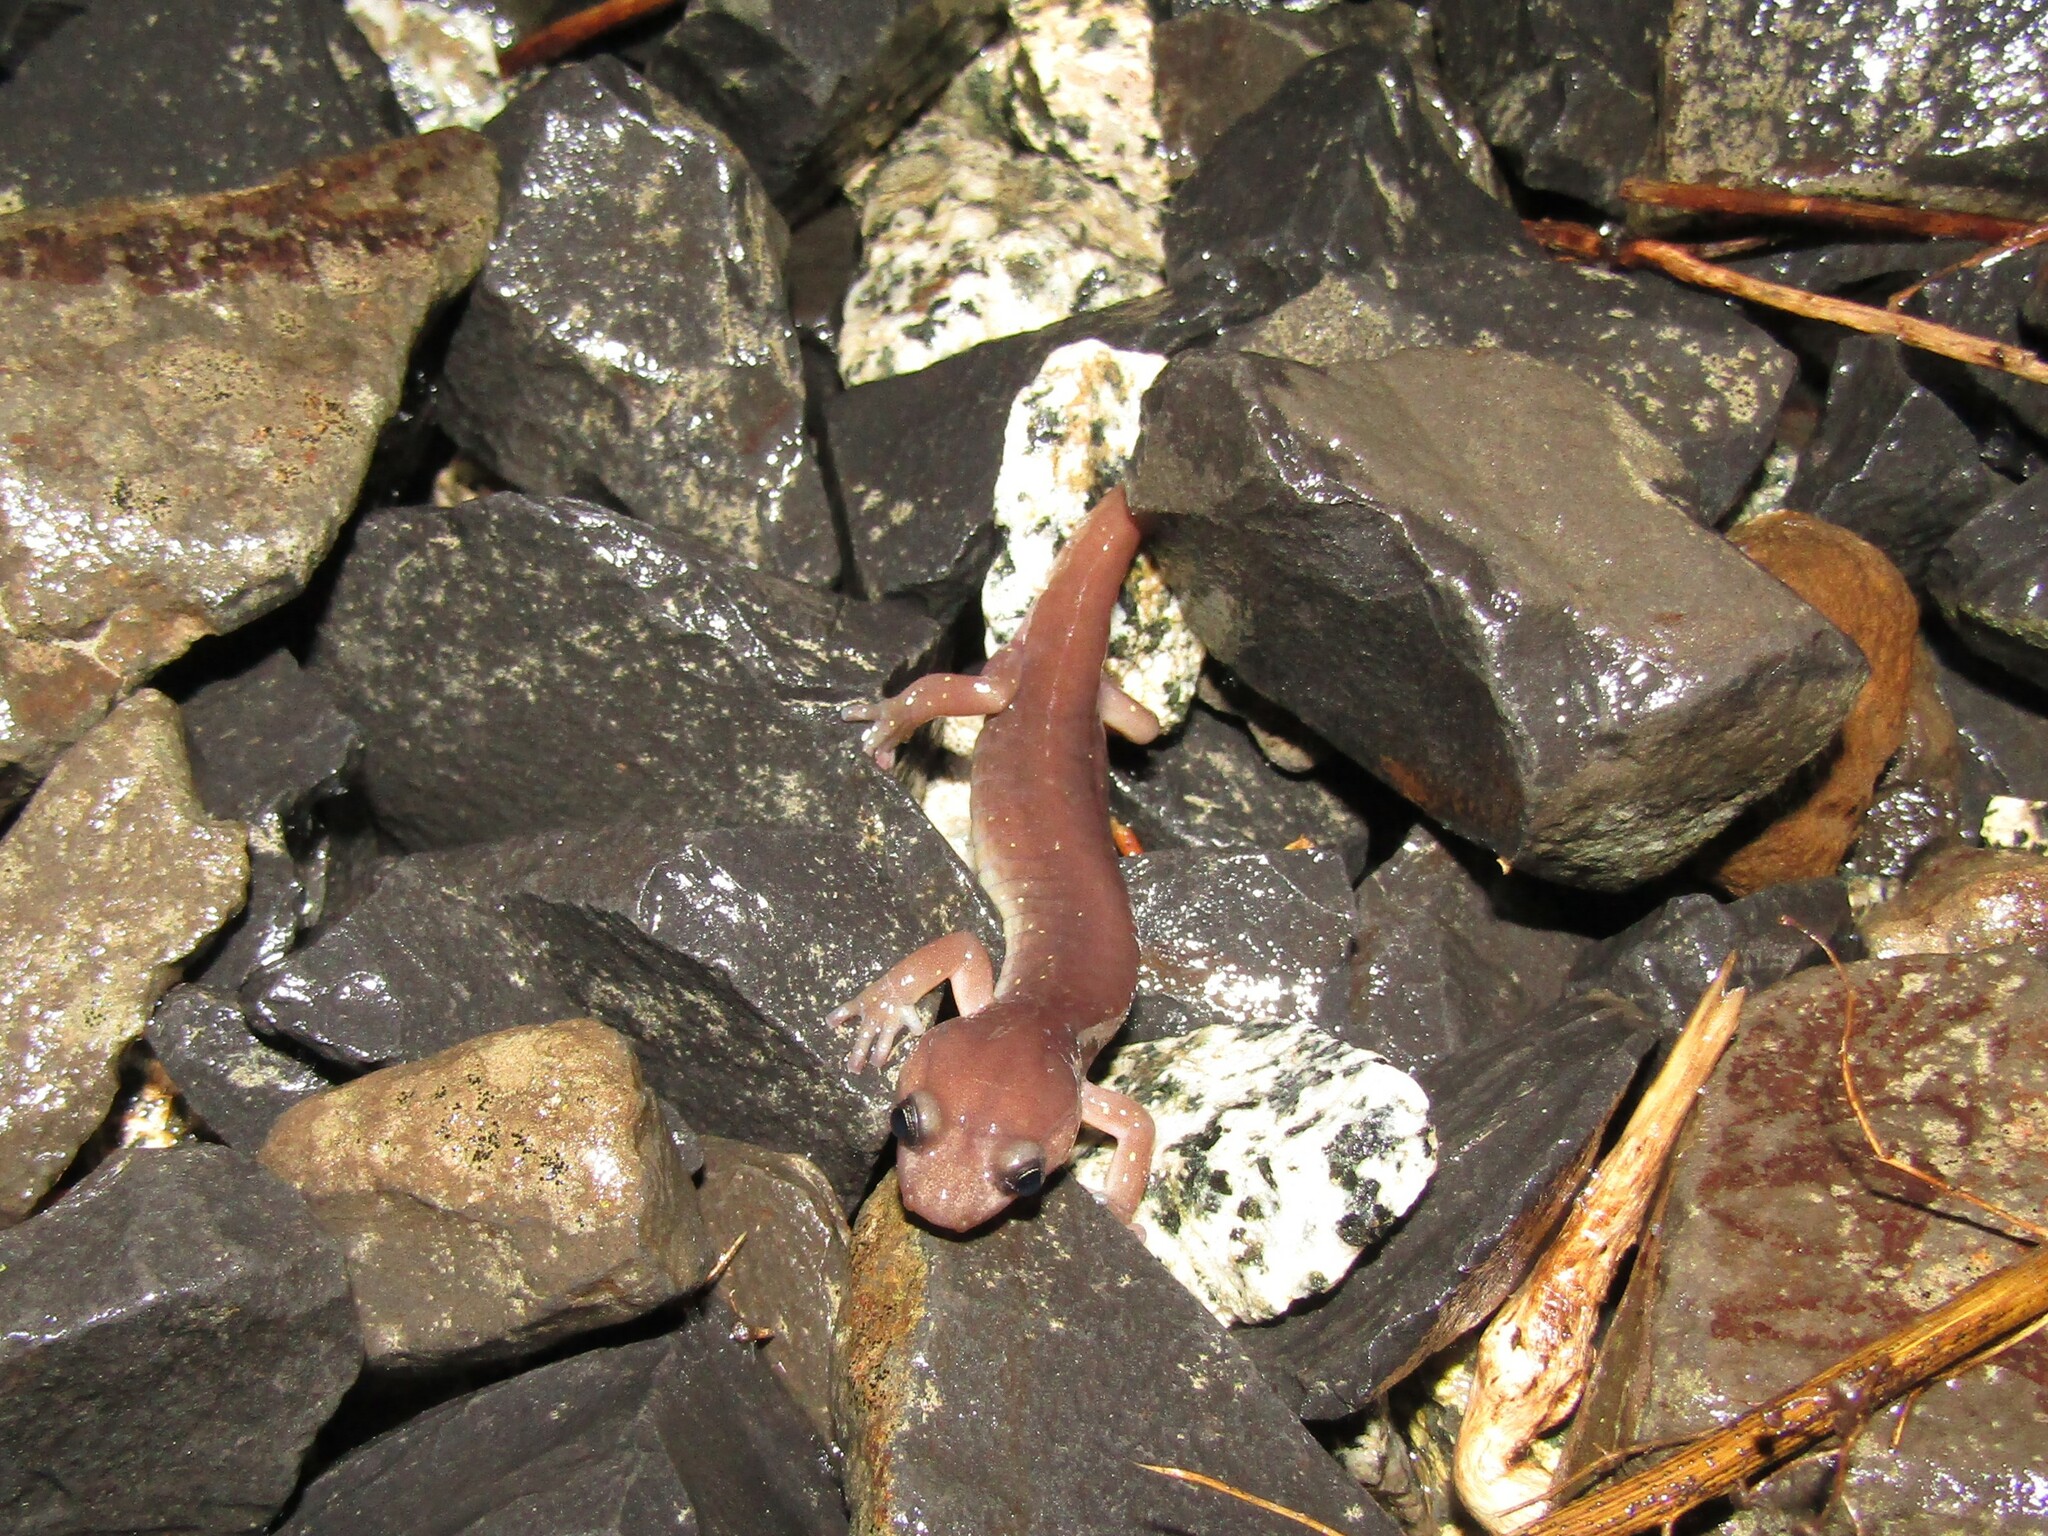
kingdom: Animalia
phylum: Chordata
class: Amphibia
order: Caudata
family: Plethodontidae
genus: Aneides
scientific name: Aneides lugubris
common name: Arboreal salamander
